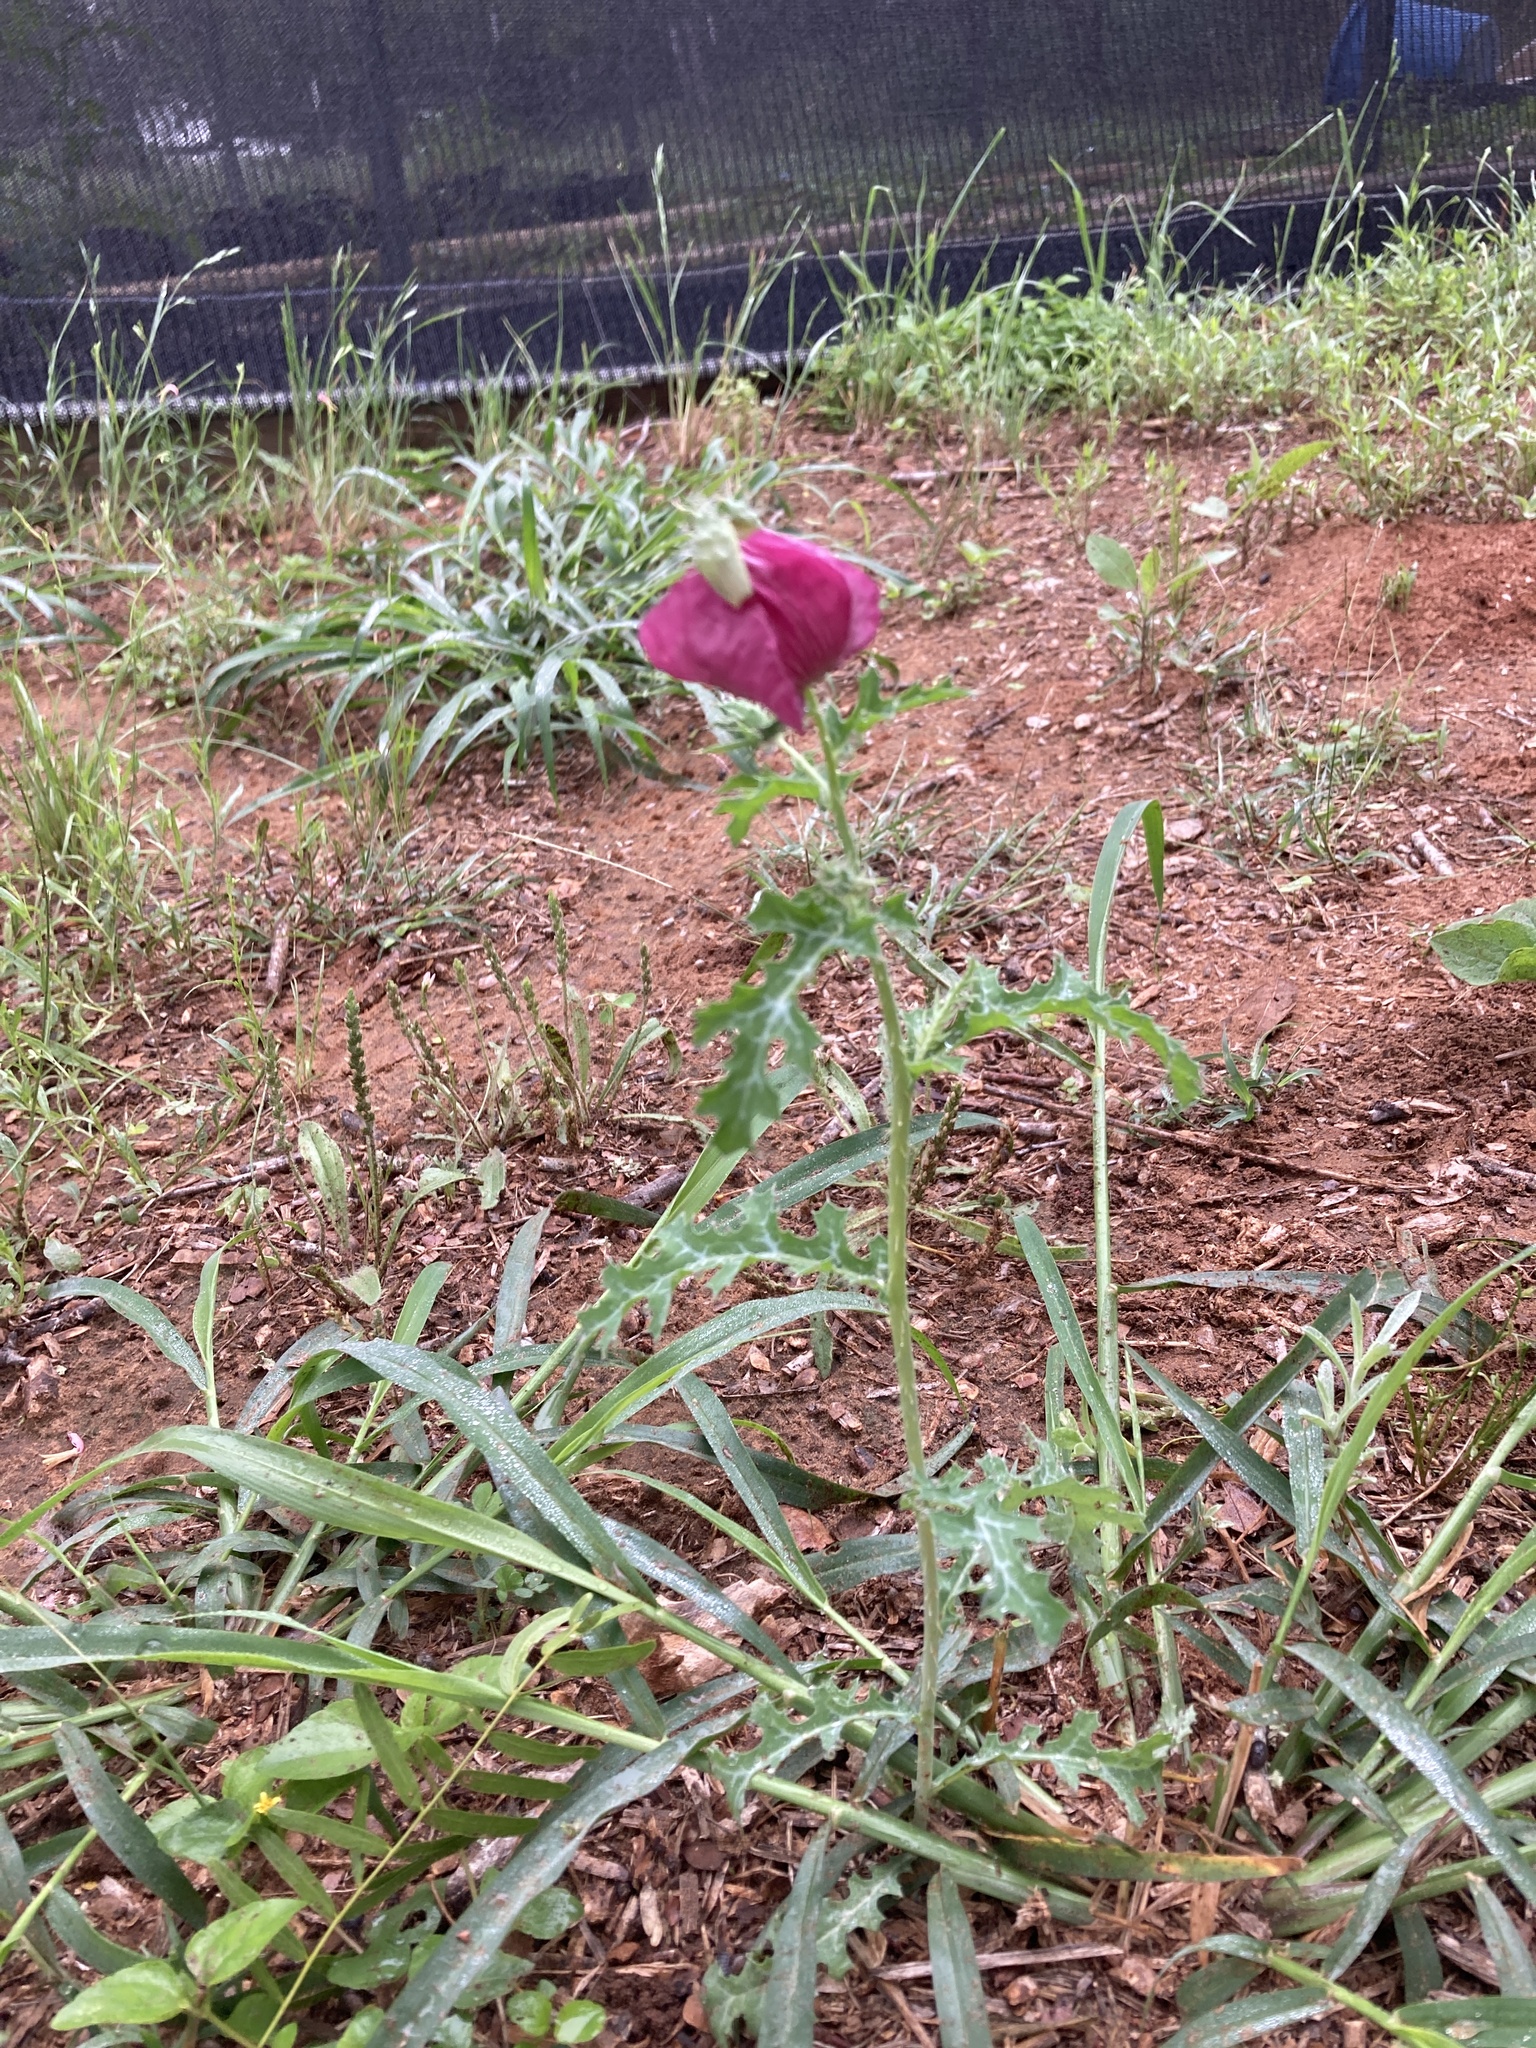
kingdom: Plantae
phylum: Tracheophyta
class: Magnoliopsida
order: Ranunculales
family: Papaveraceae
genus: Argemone
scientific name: Argemone sanguinea
